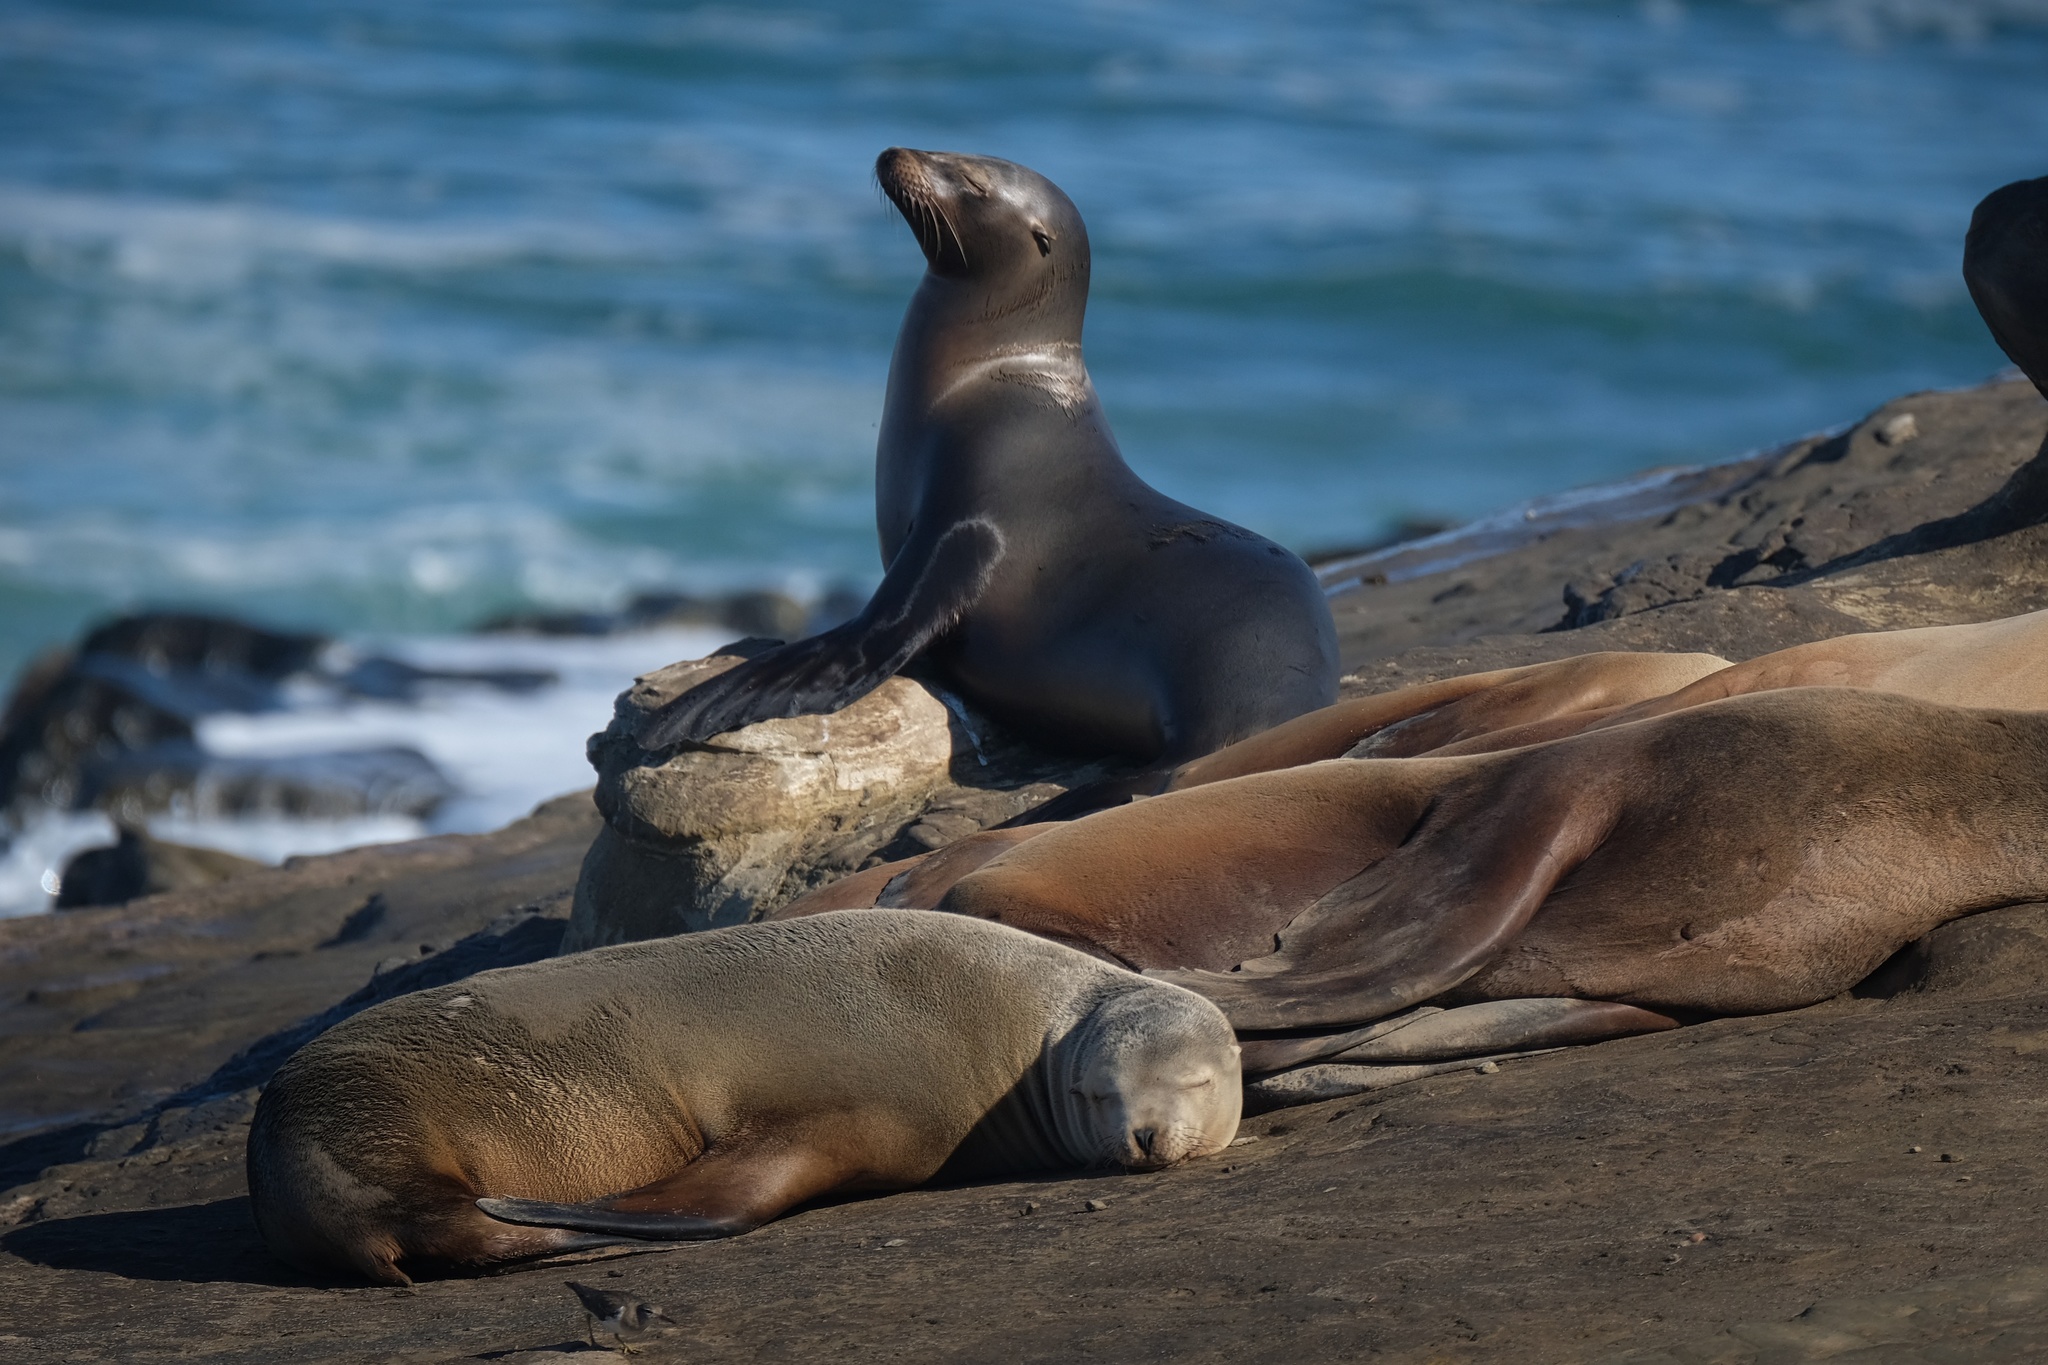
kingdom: Animalia
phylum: Chordata
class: Mammalia
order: Carnivora
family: Otariidae
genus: Zalophus
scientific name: Zalophus californianus
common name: California sea lion
